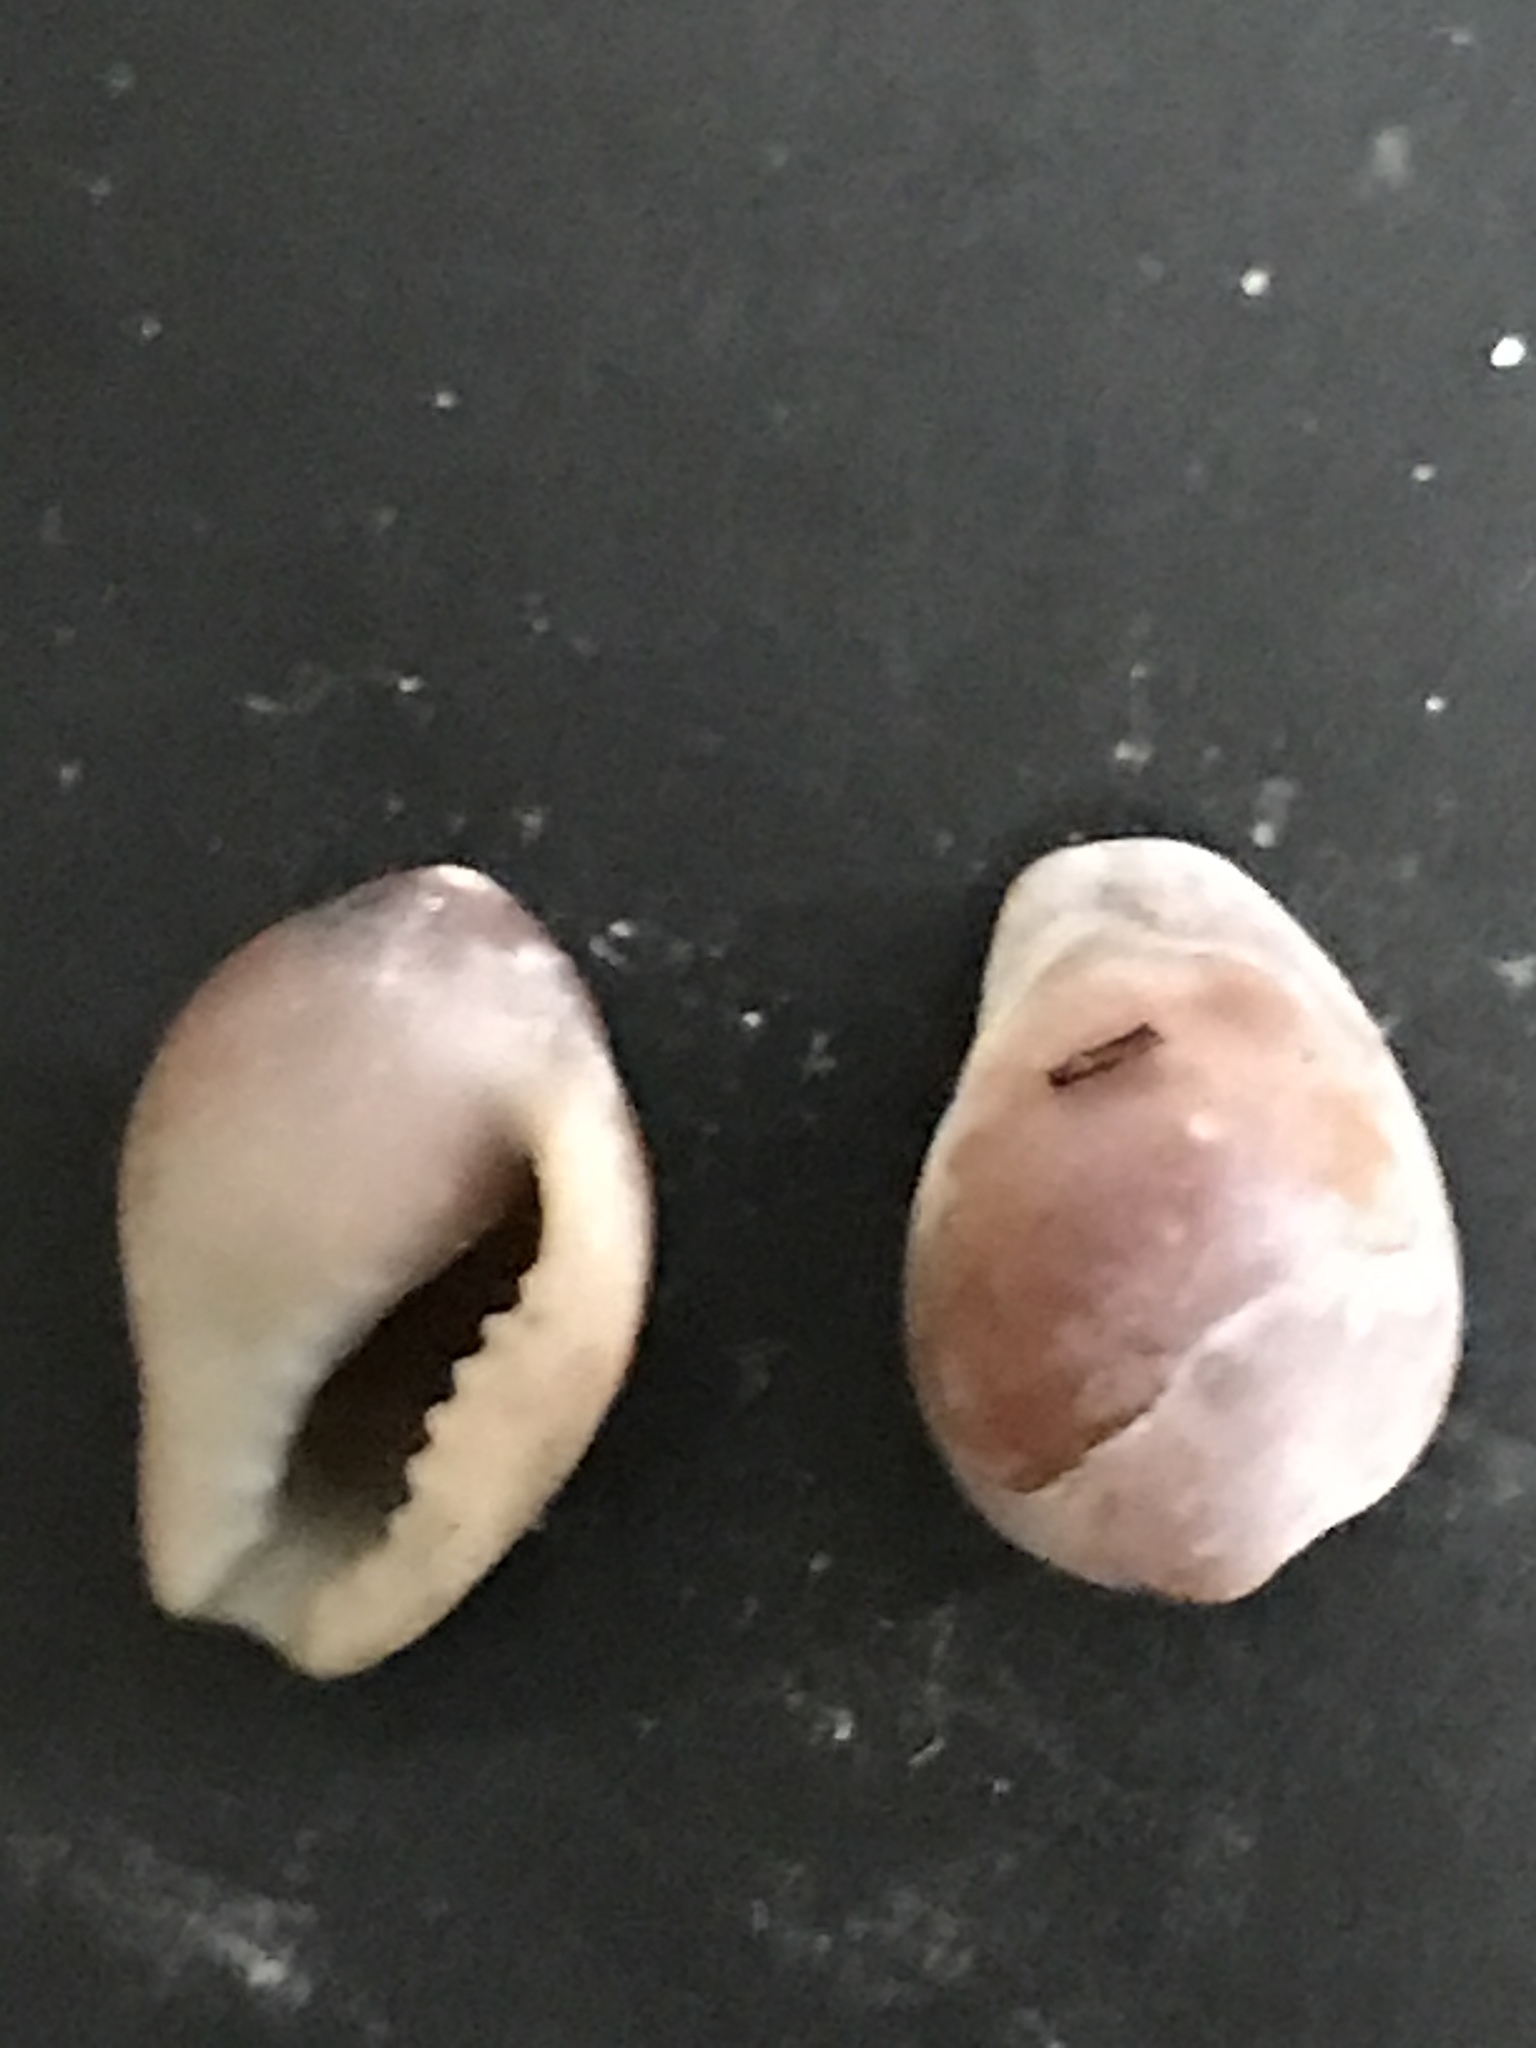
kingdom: Animalia
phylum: Mollusca
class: Gastropoda
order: Littorinimorpha
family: Eratoidae
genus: Hespererato
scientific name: Hespererato vitellina
